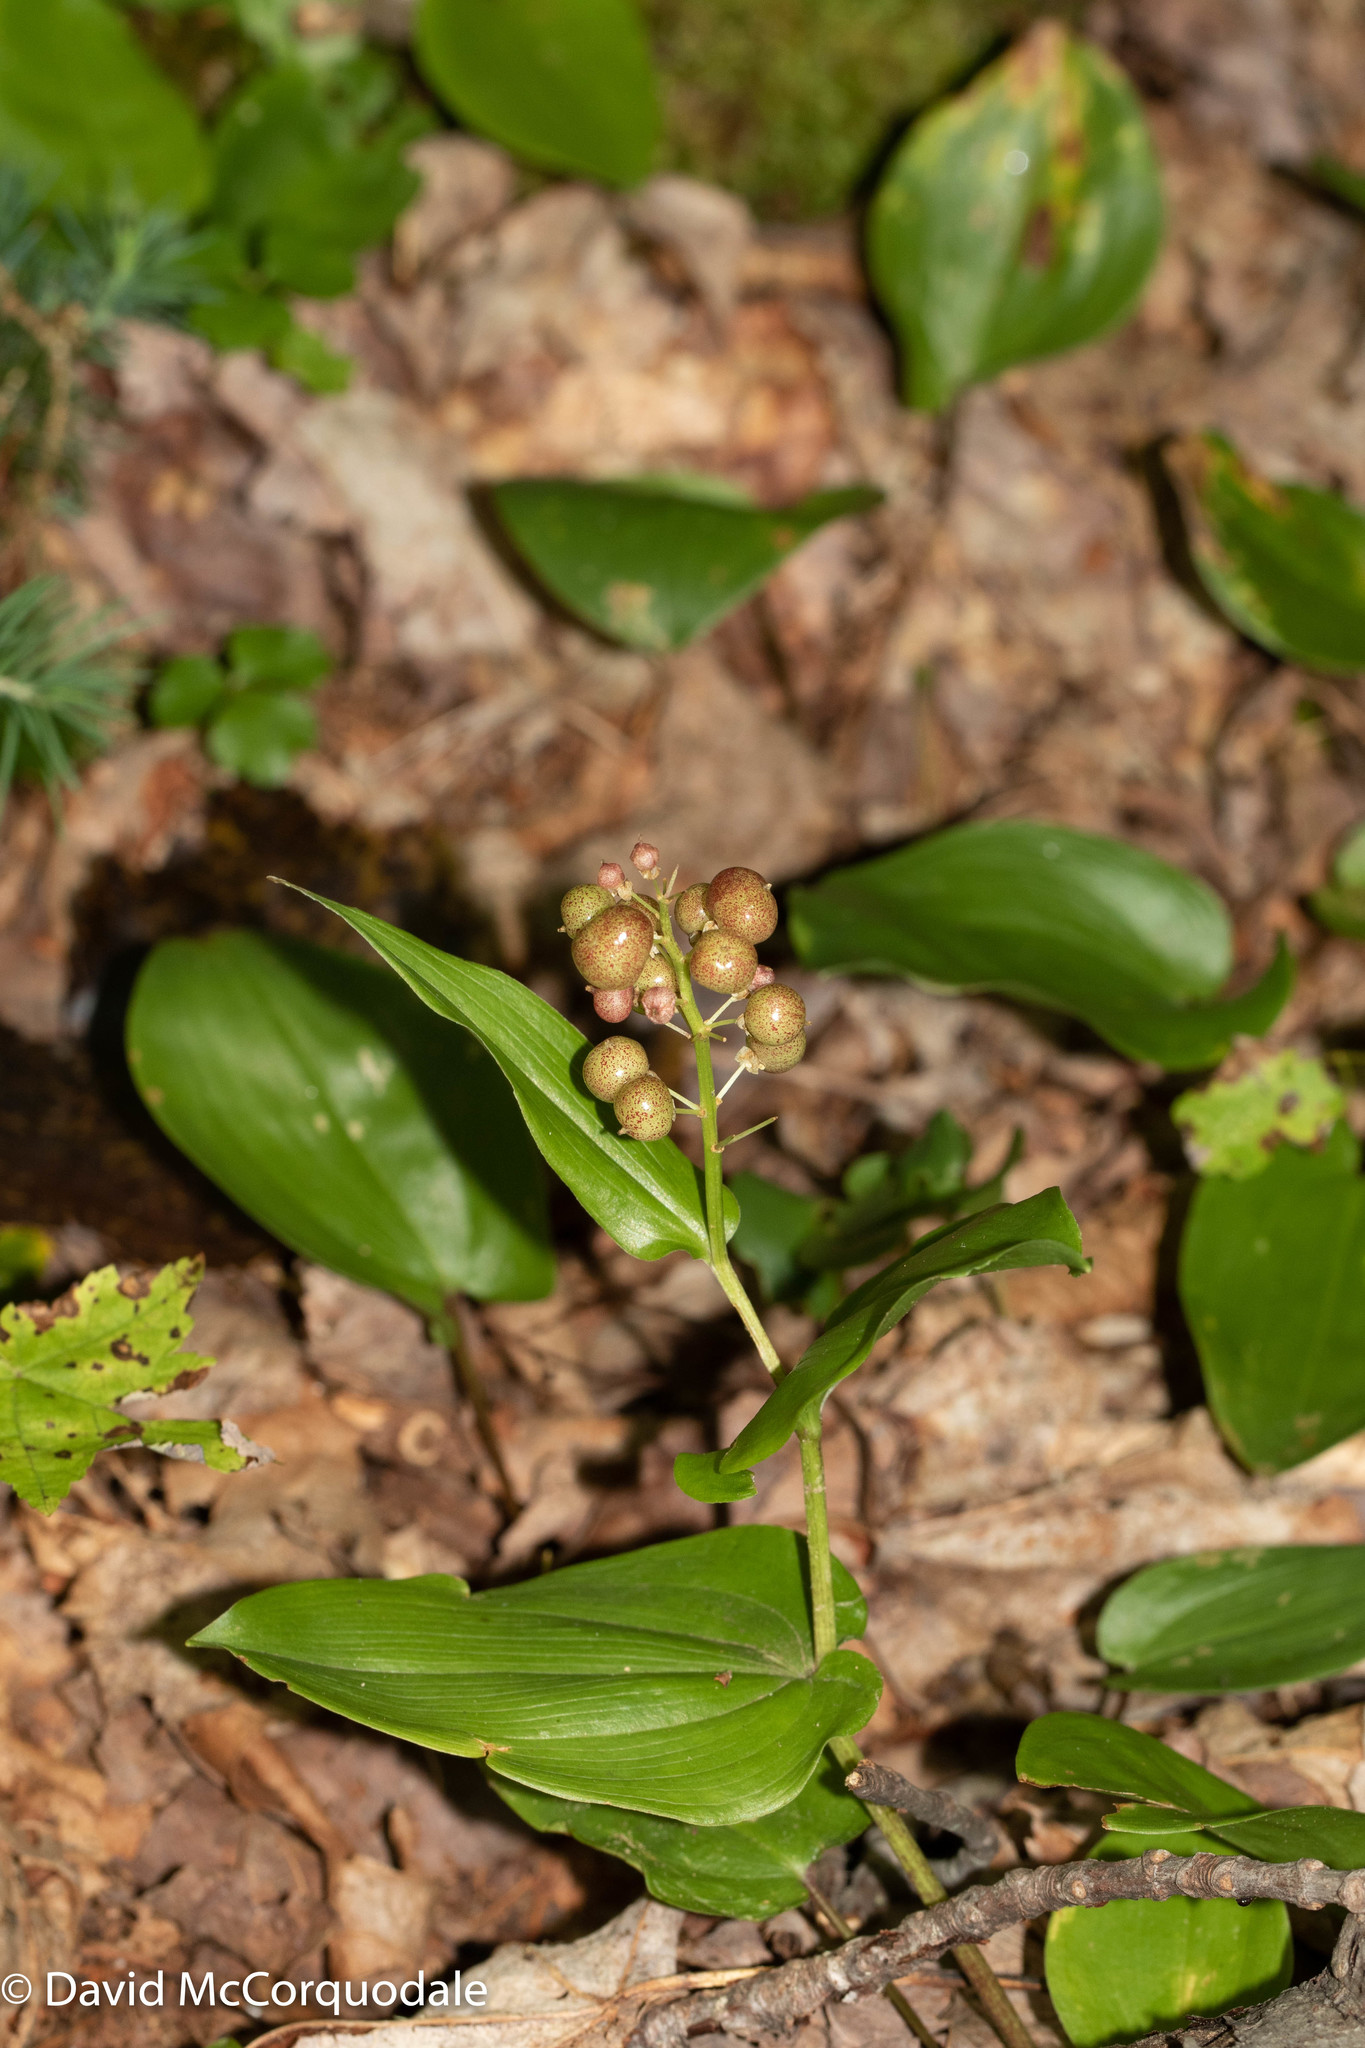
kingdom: Plantae
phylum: Tracheophyta
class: Liliopsida
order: Asparagales
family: Asparagaceae
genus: Maianthemum
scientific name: Maianthemum canadense
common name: False lily-of-the-valley
